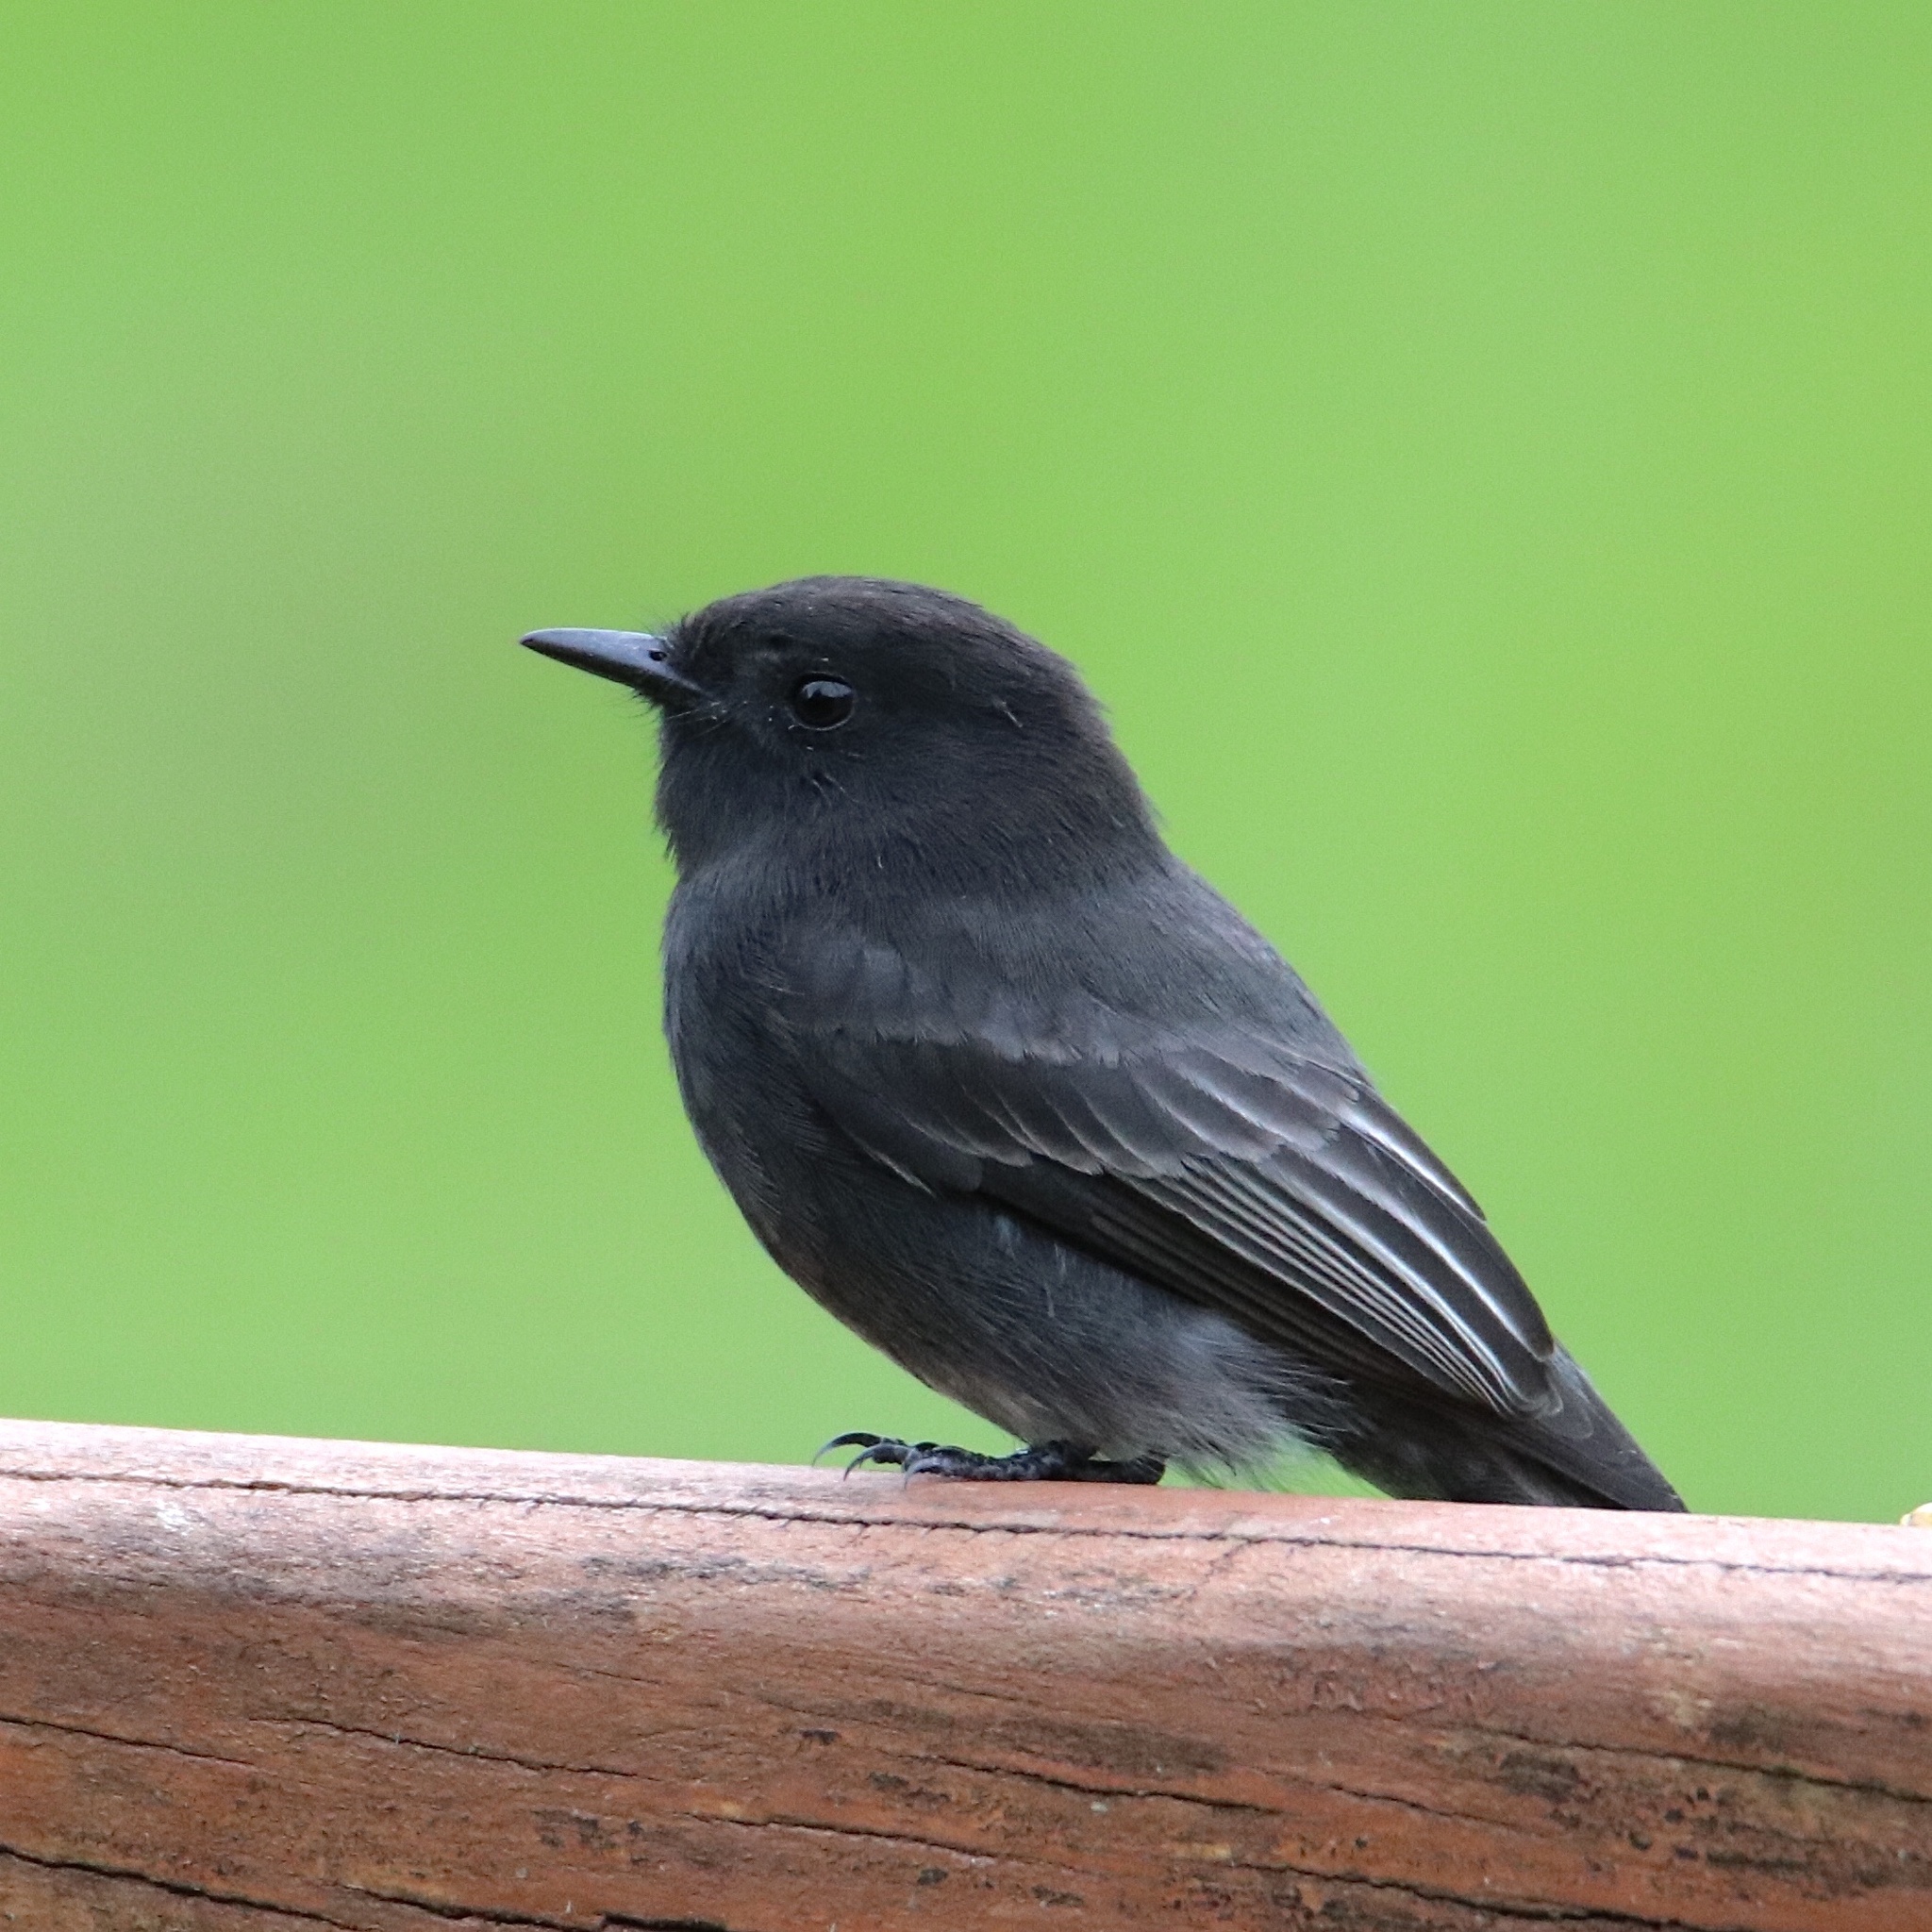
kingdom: Animalia
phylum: Chordata
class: Aves
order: Passeriformes
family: Tyrannidae
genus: Sayornis
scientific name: Sayornis nigricans
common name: Black phoebe
